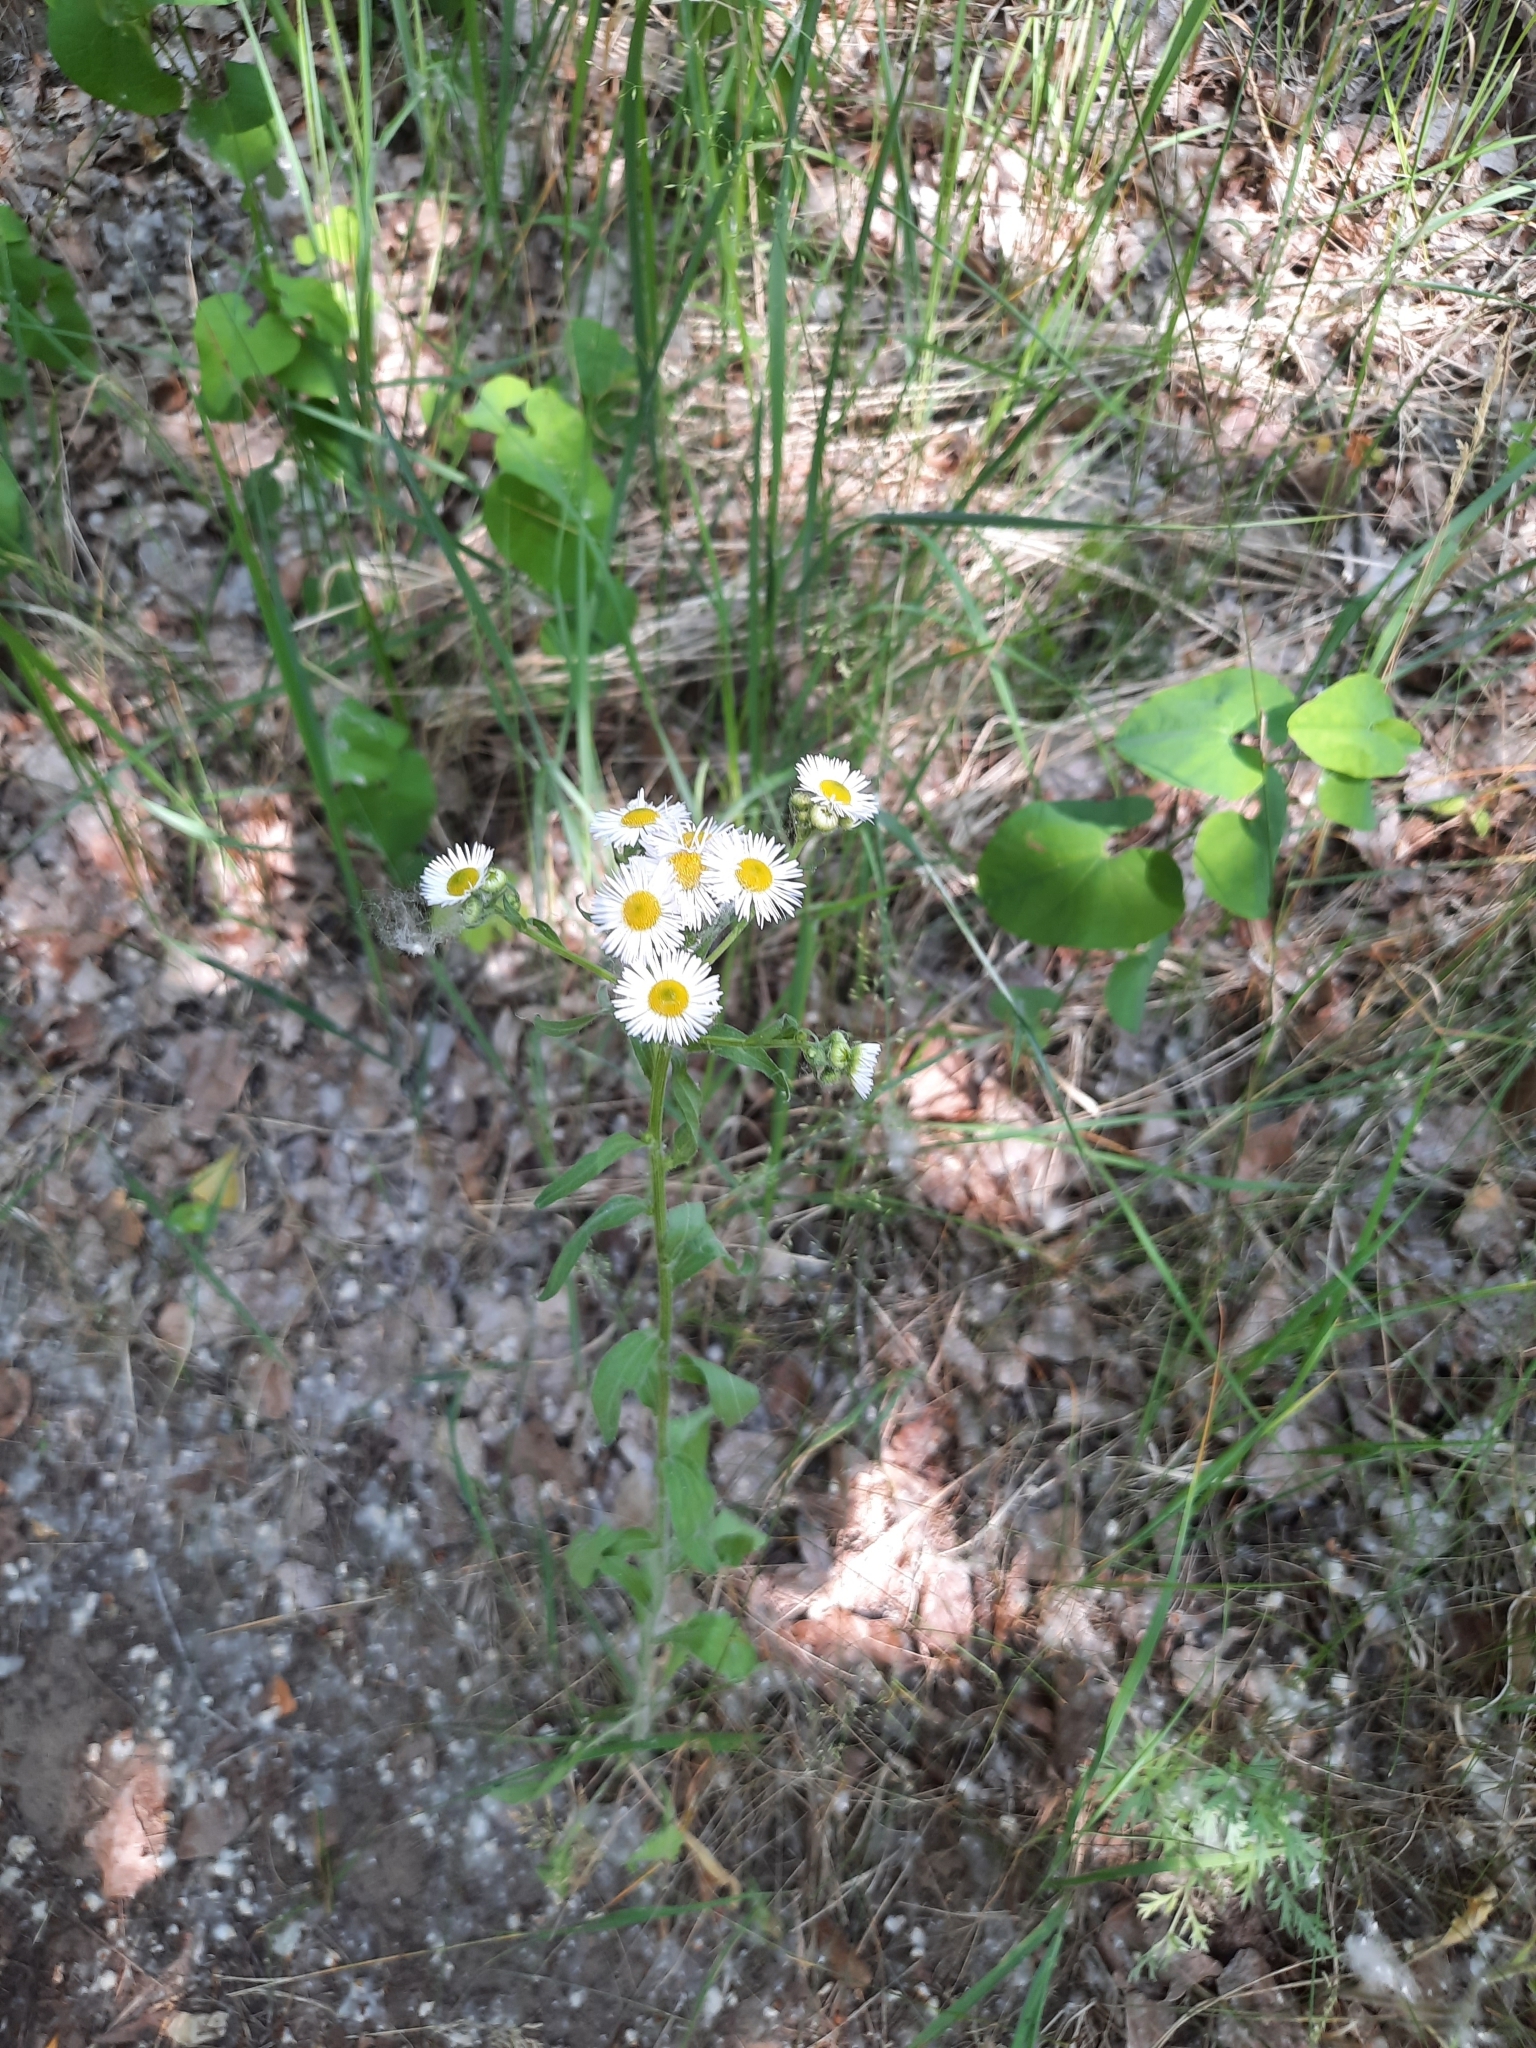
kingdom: Plantae
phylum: Tracheophyta
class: Magnoliopsida
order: Asterales
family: Asteraceae
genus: Erigeron
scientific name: Erigeron annuus
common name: Tall fleabane
